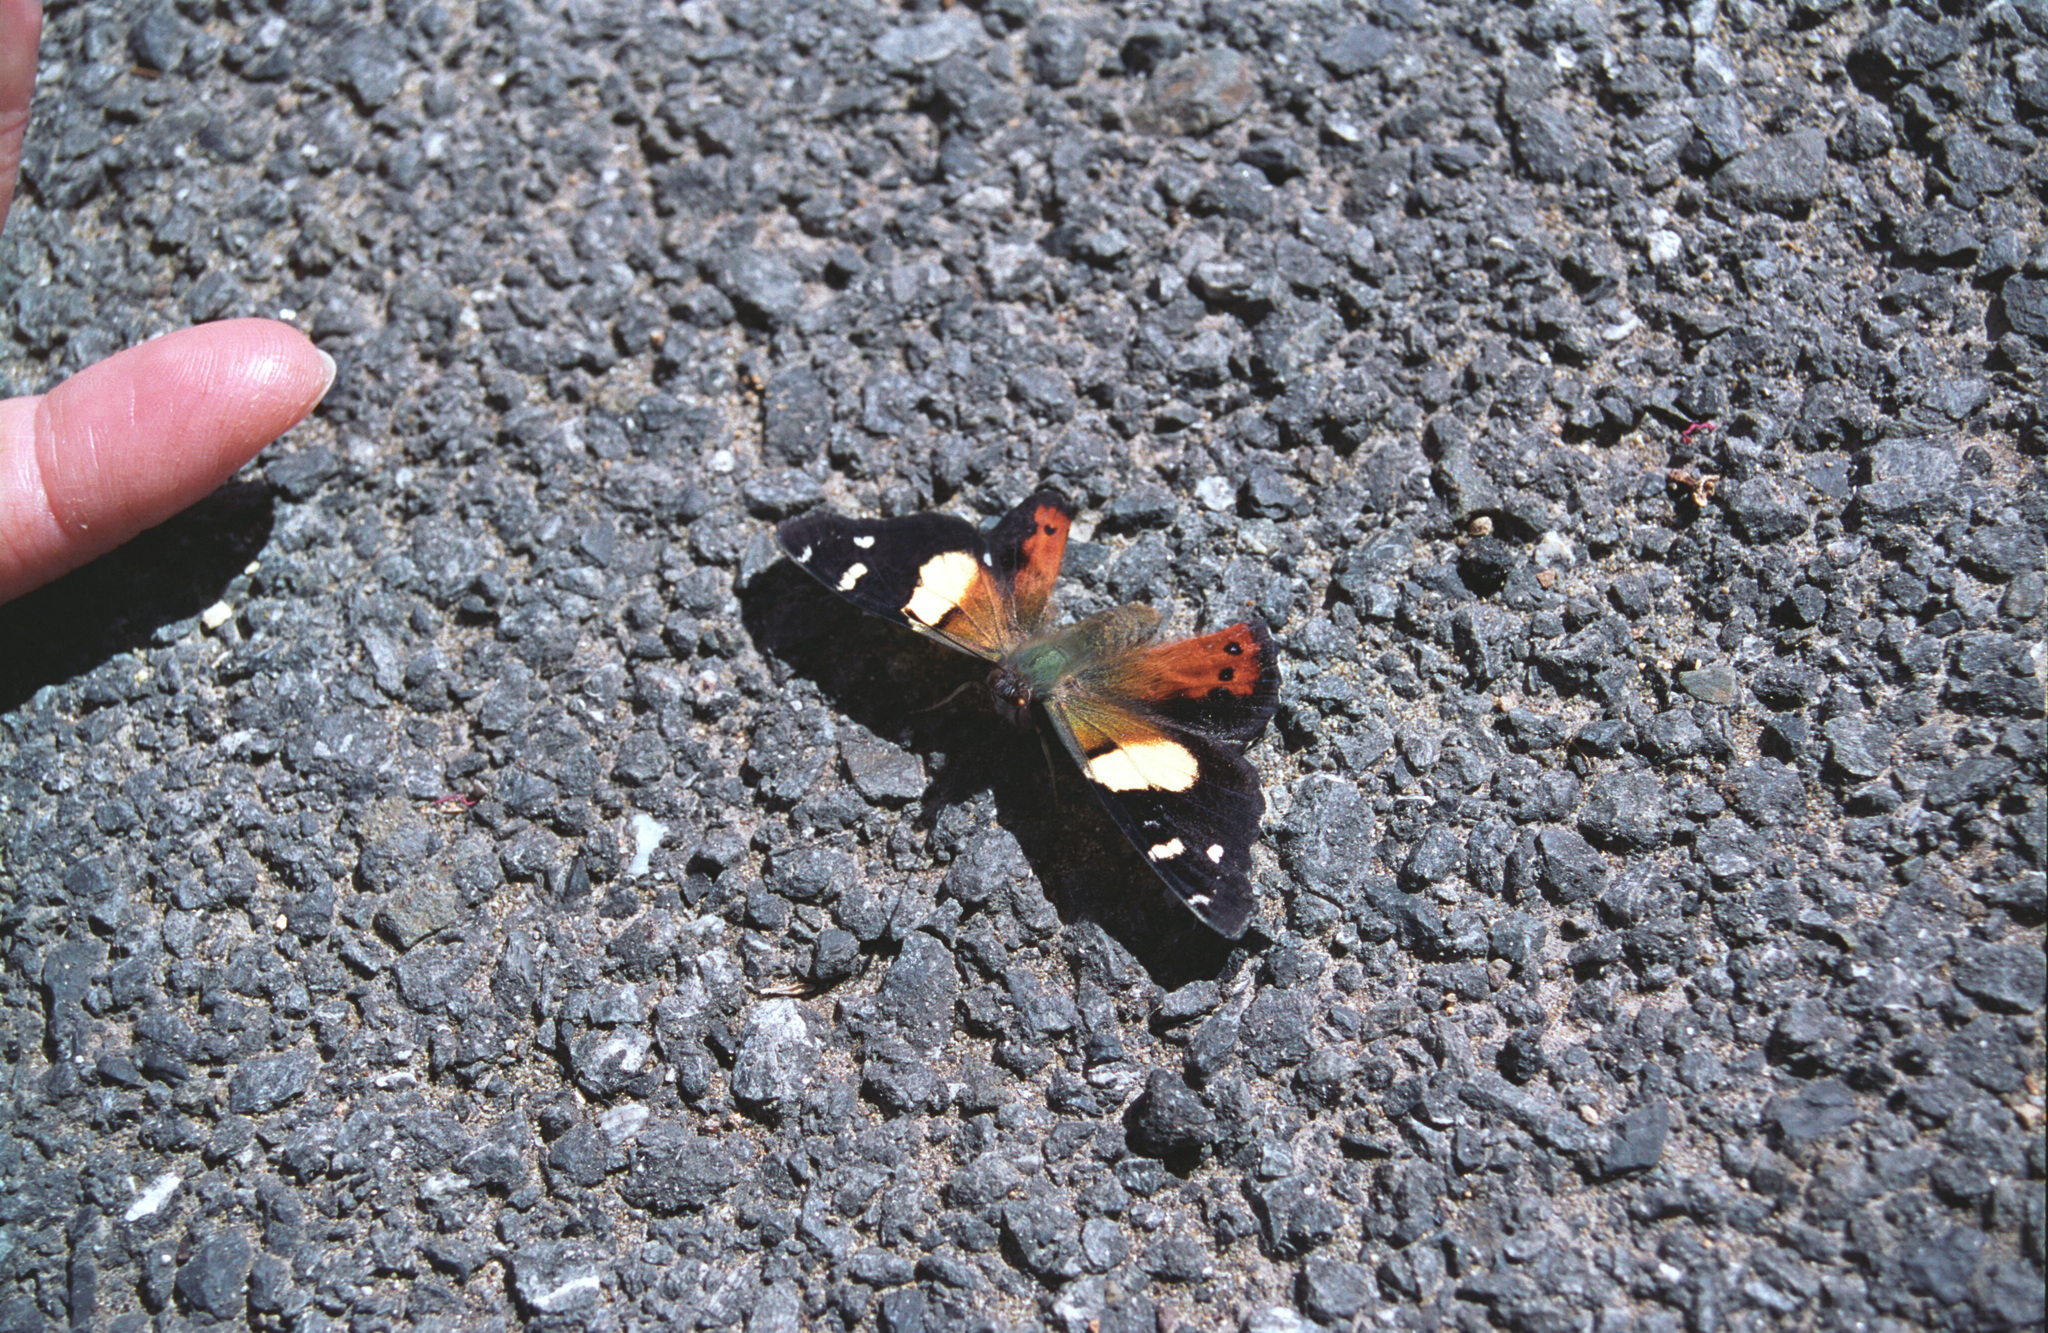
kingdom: Animalia
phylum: Arthropoda
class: Insecta
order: Lepidoptera
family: Nymphalidae
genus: Vanessa
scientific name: Vanessa itea
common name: Yellow admiral
